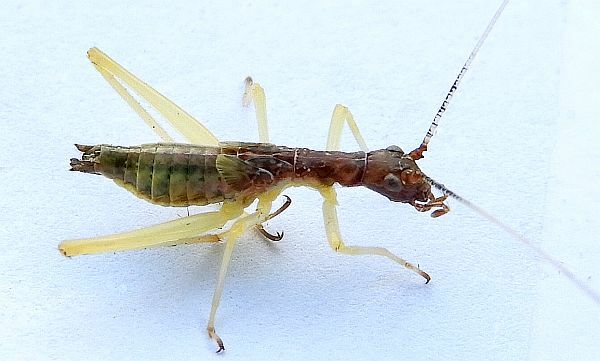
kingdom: Animalia
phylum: Arthropoda
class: Insecta
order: Orthoptera
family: Gryllidae
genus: Neoxabea
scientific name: Neoxabea bipunctata
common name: Two-spotted tree cricket
